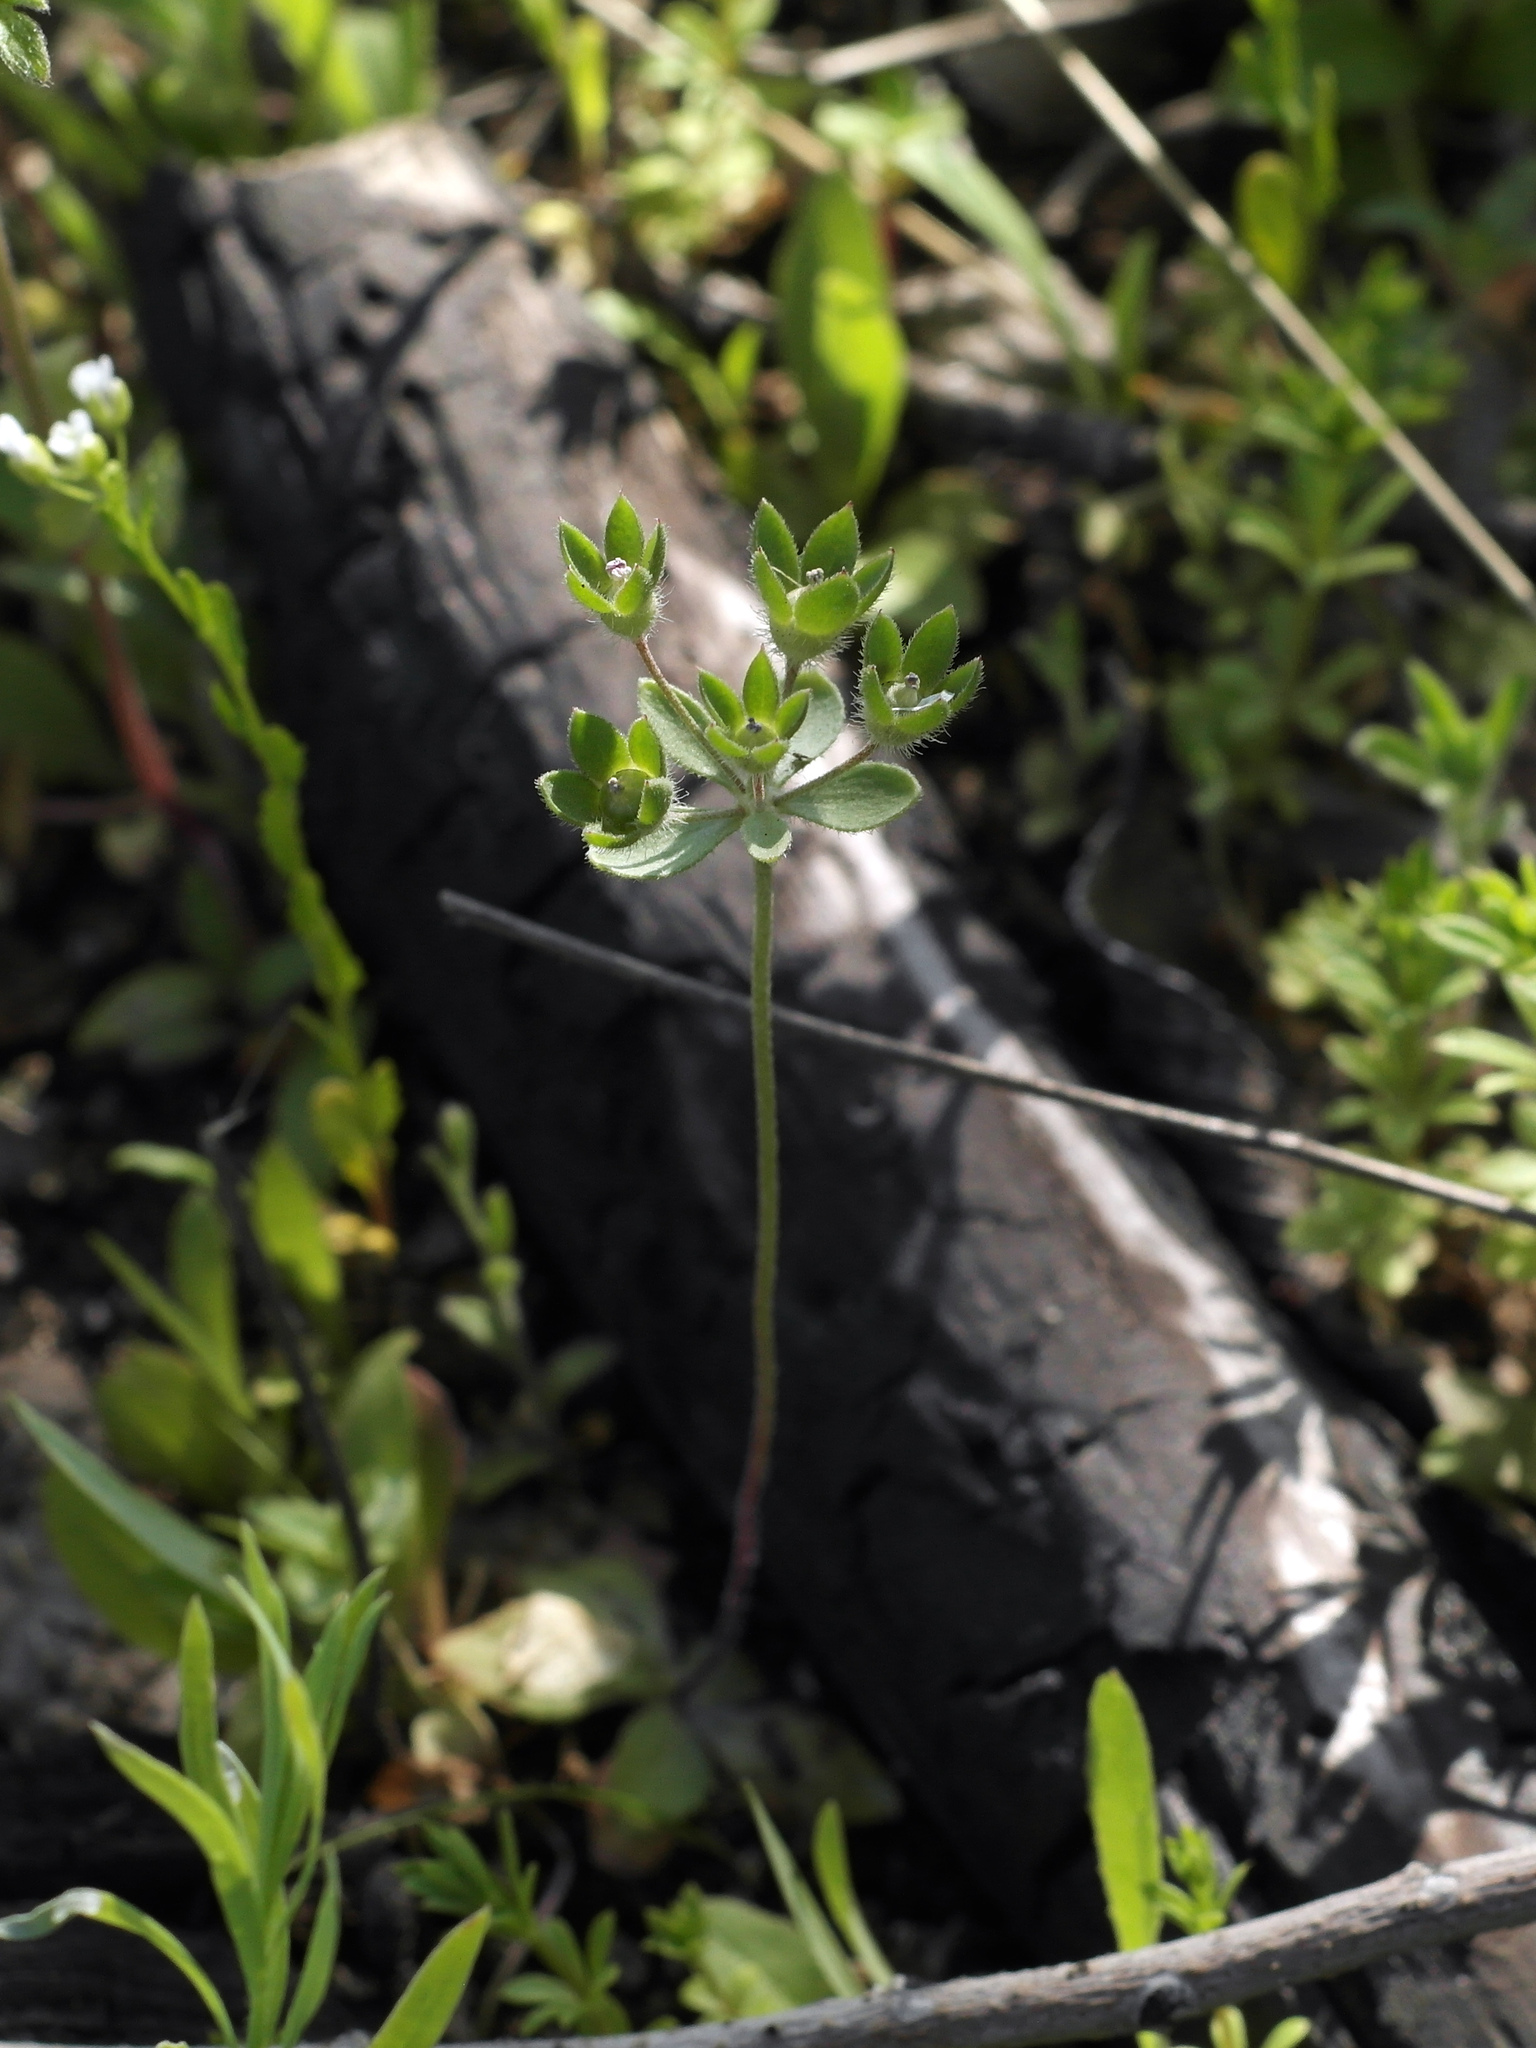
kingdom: Plantae
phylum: Tracheophyta
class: Magnoliopsida
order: Ericales
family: Primulaceae
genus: Androsace
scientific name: Androsace maxima
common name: Annual androsace
